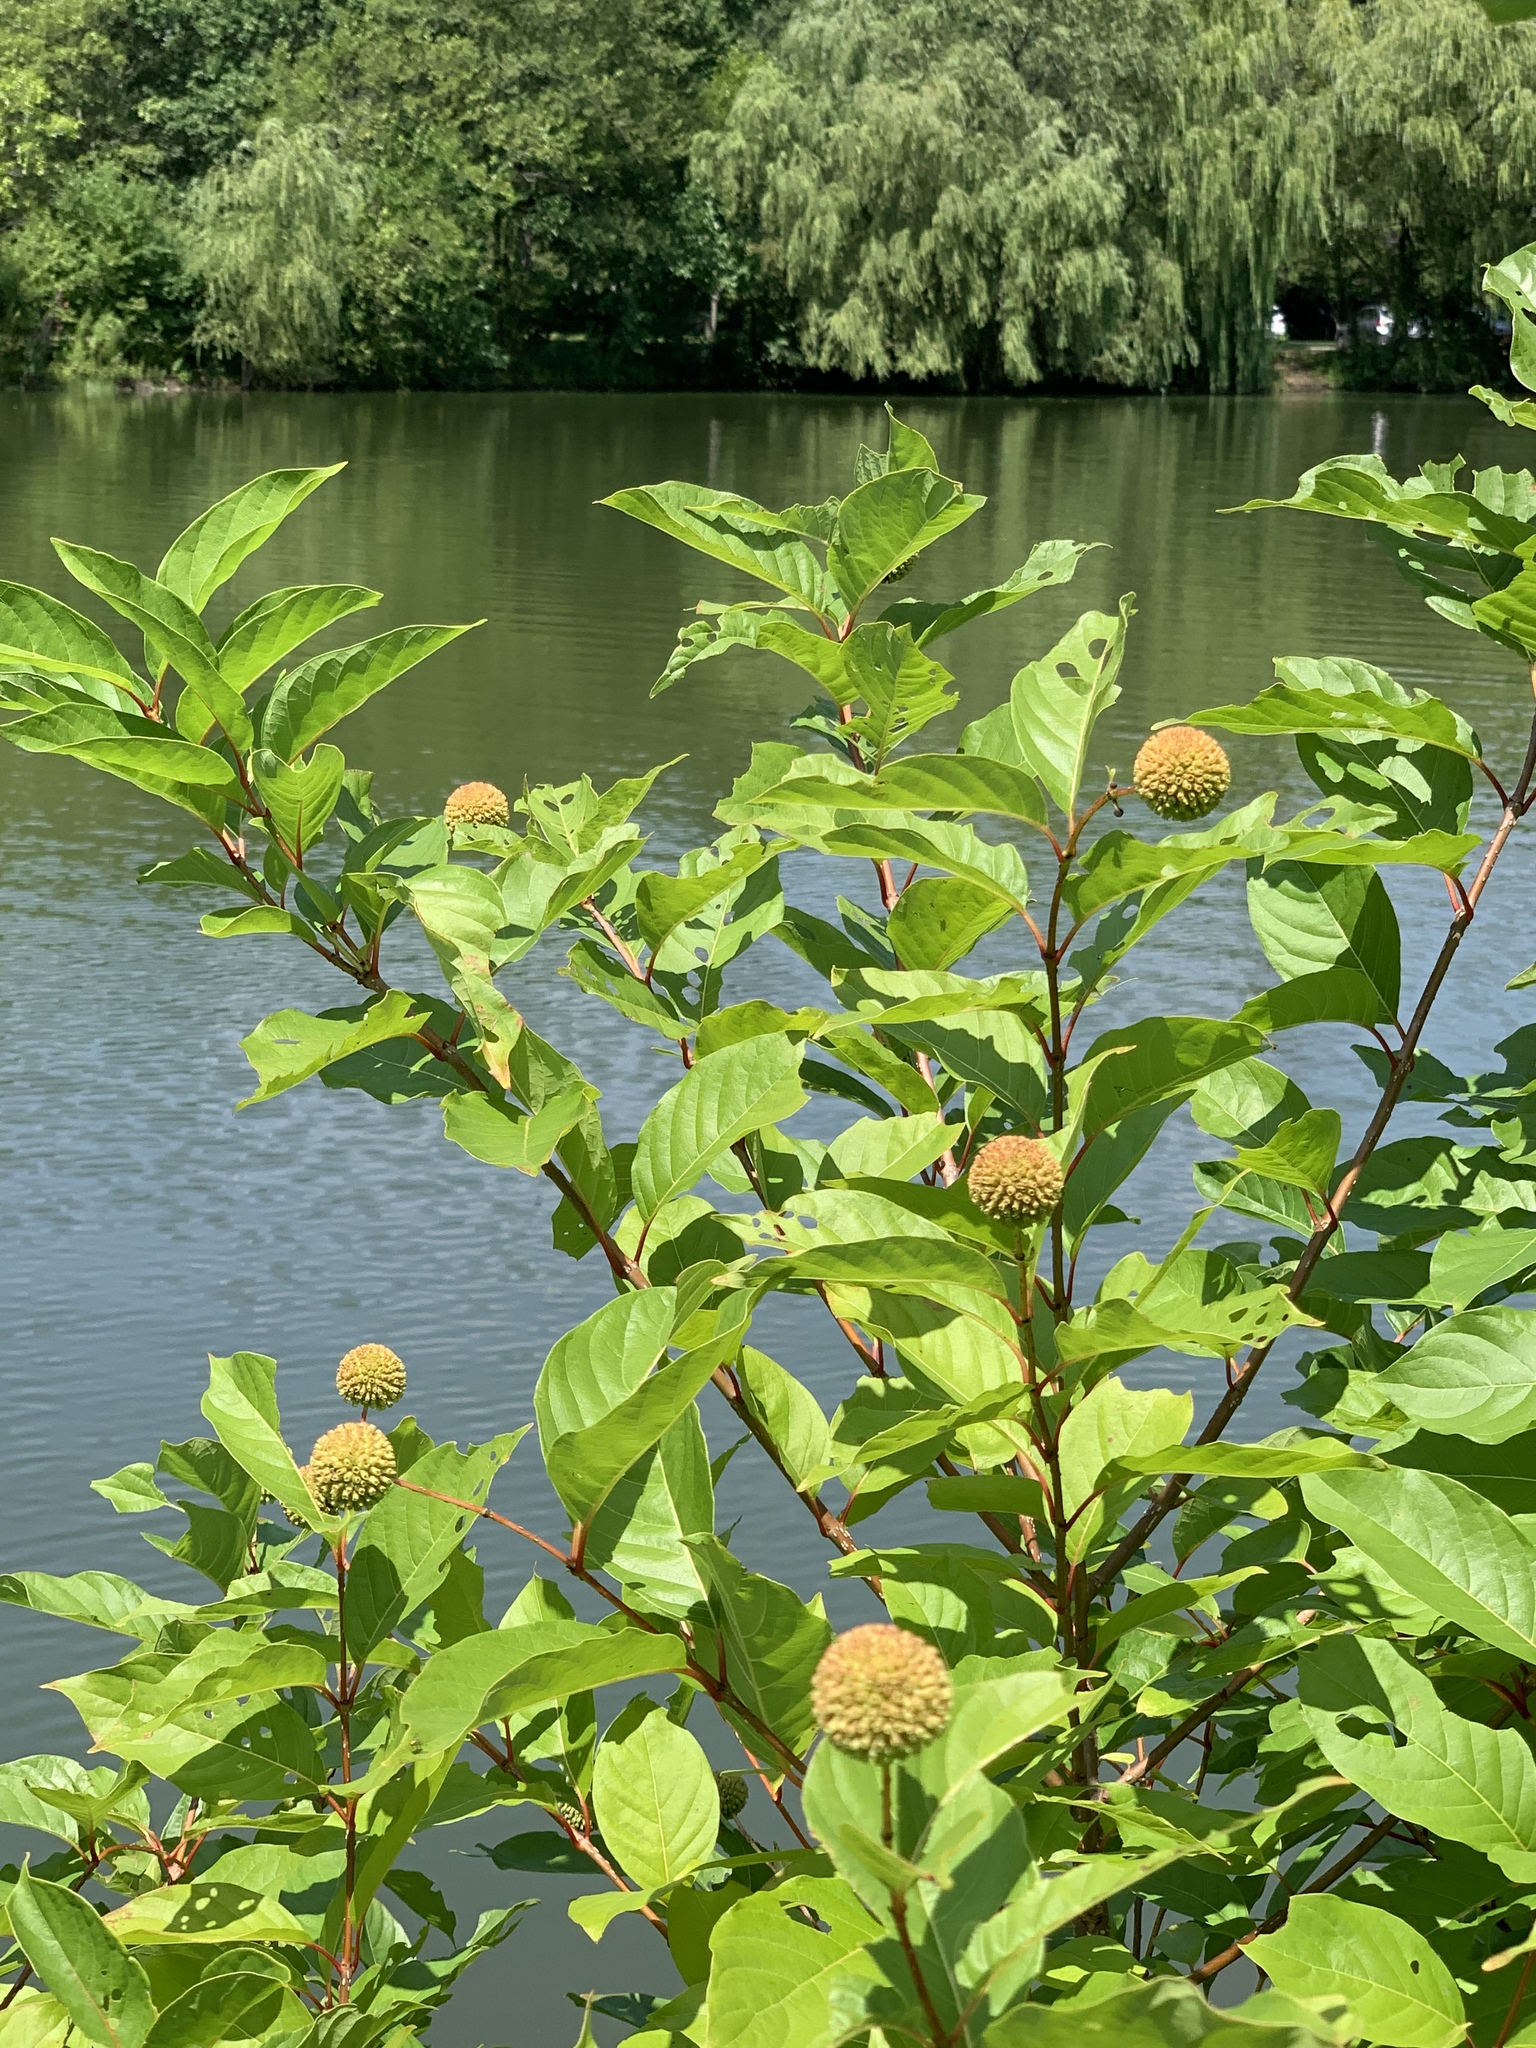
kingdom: Plantae
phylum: Tracheophyta
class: Magnoliopsida
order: Gentianales
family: Rubiaceae
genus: Cephalanthus
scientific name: Cephalanthus occidentalis
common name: Button-willow
